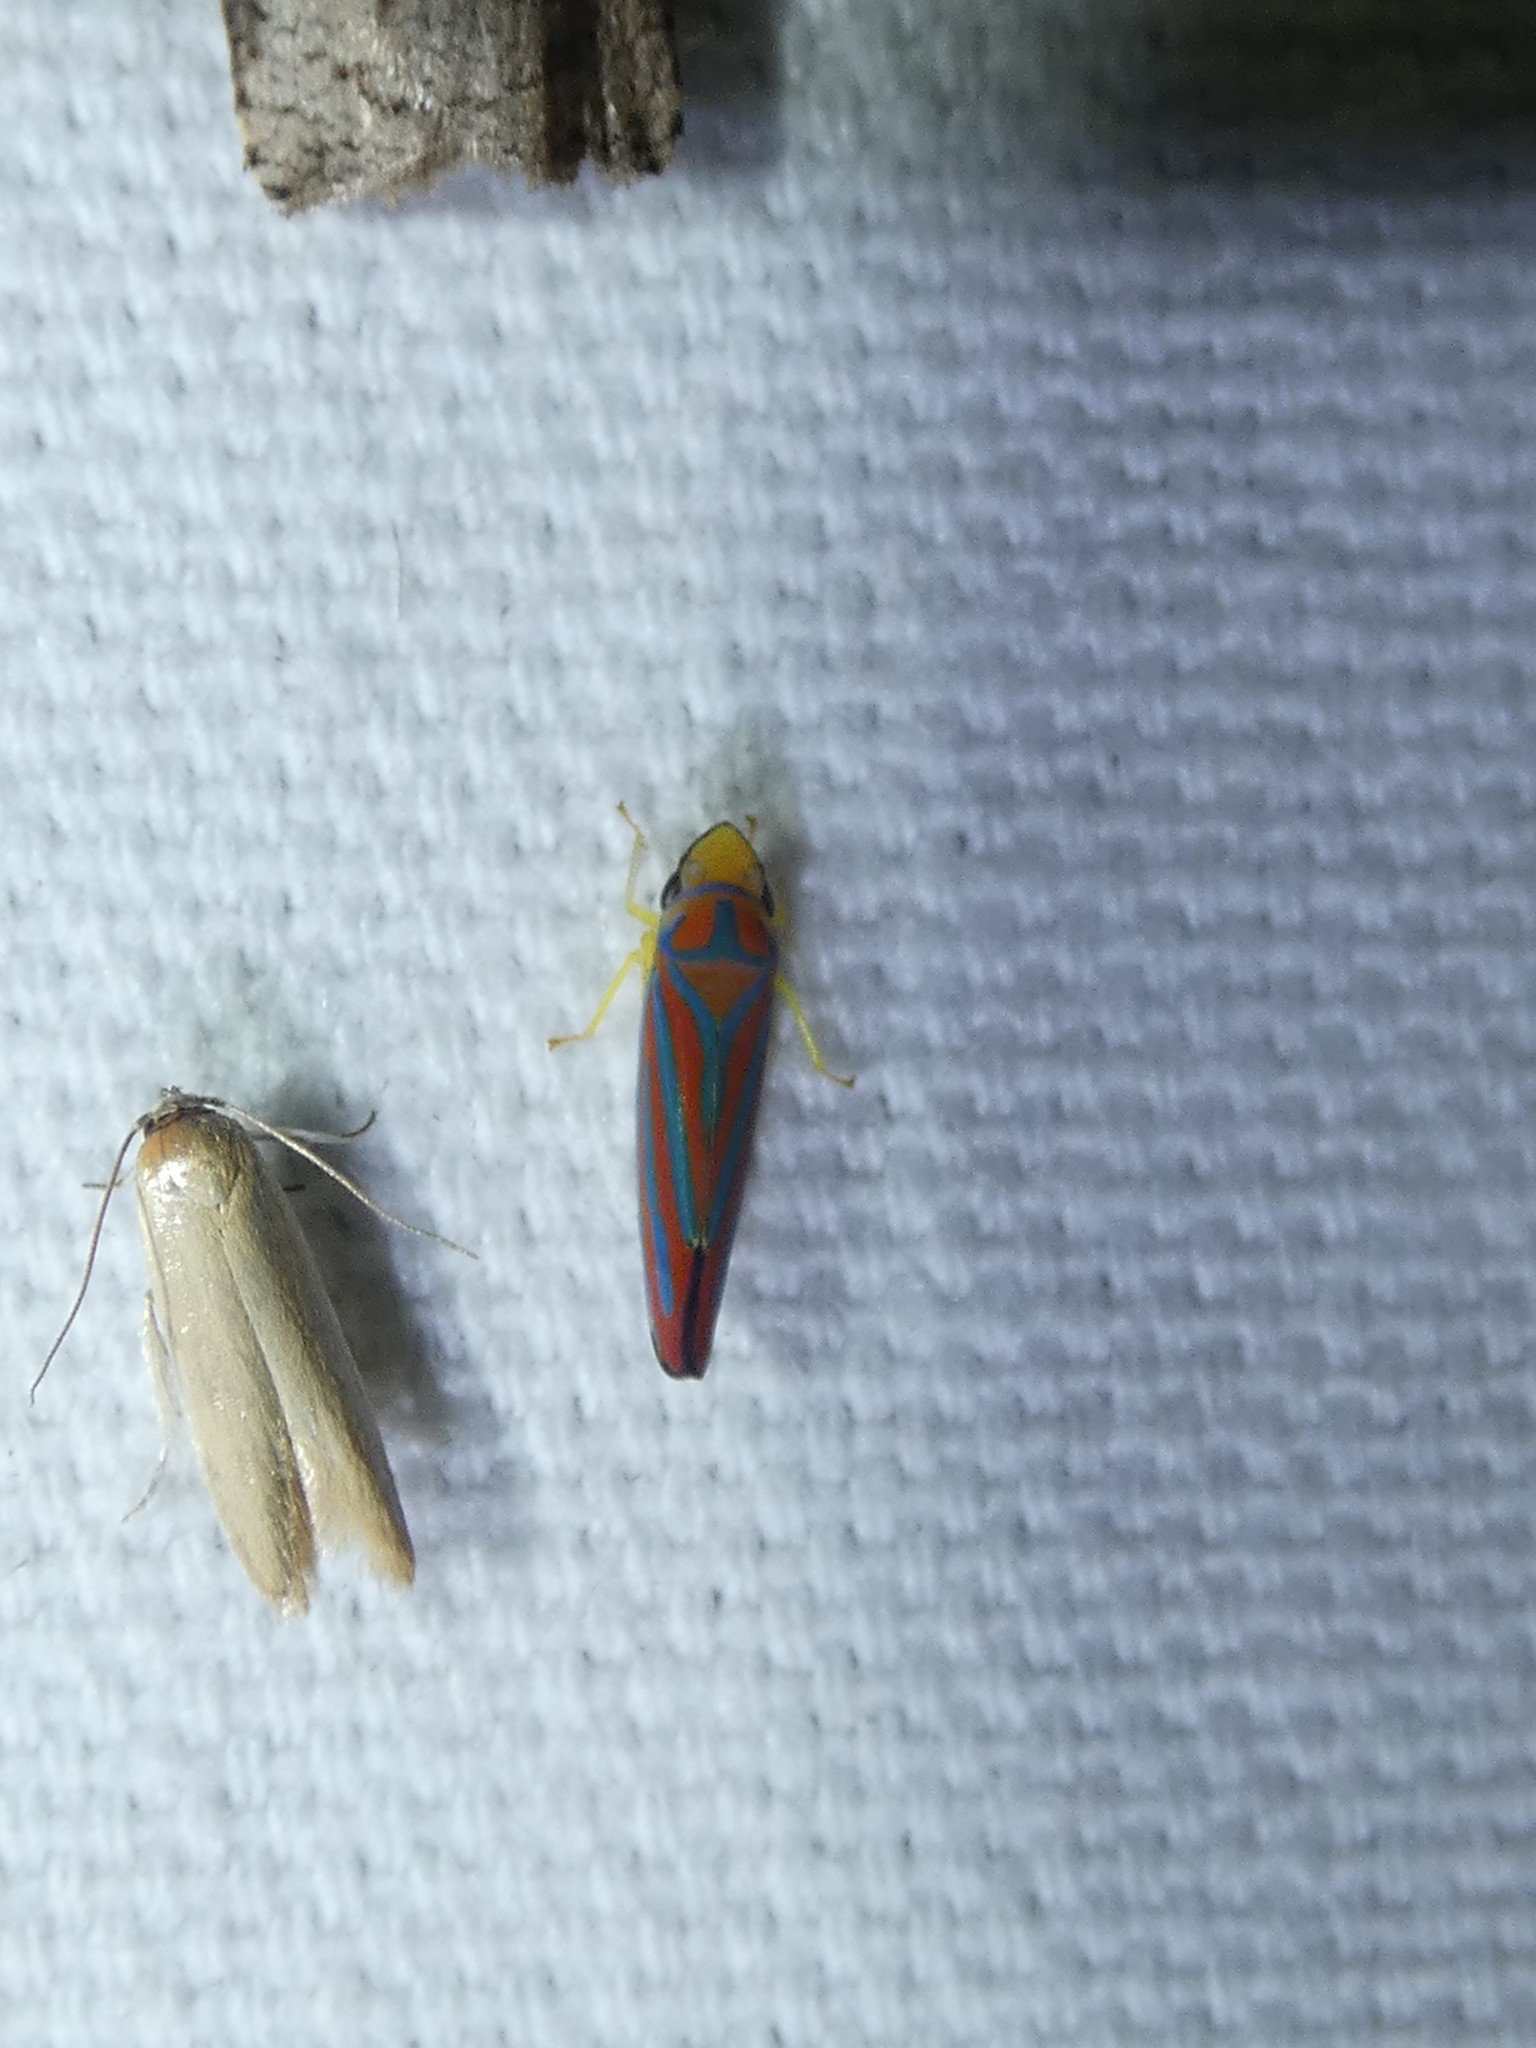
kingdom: Animalia
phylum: Arthropoda
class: Insecta
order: Hemiptera
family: Cicadellidae
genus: Graphocephala
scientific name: Graphocephala coccinea
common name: Candy-striped leafhopper
